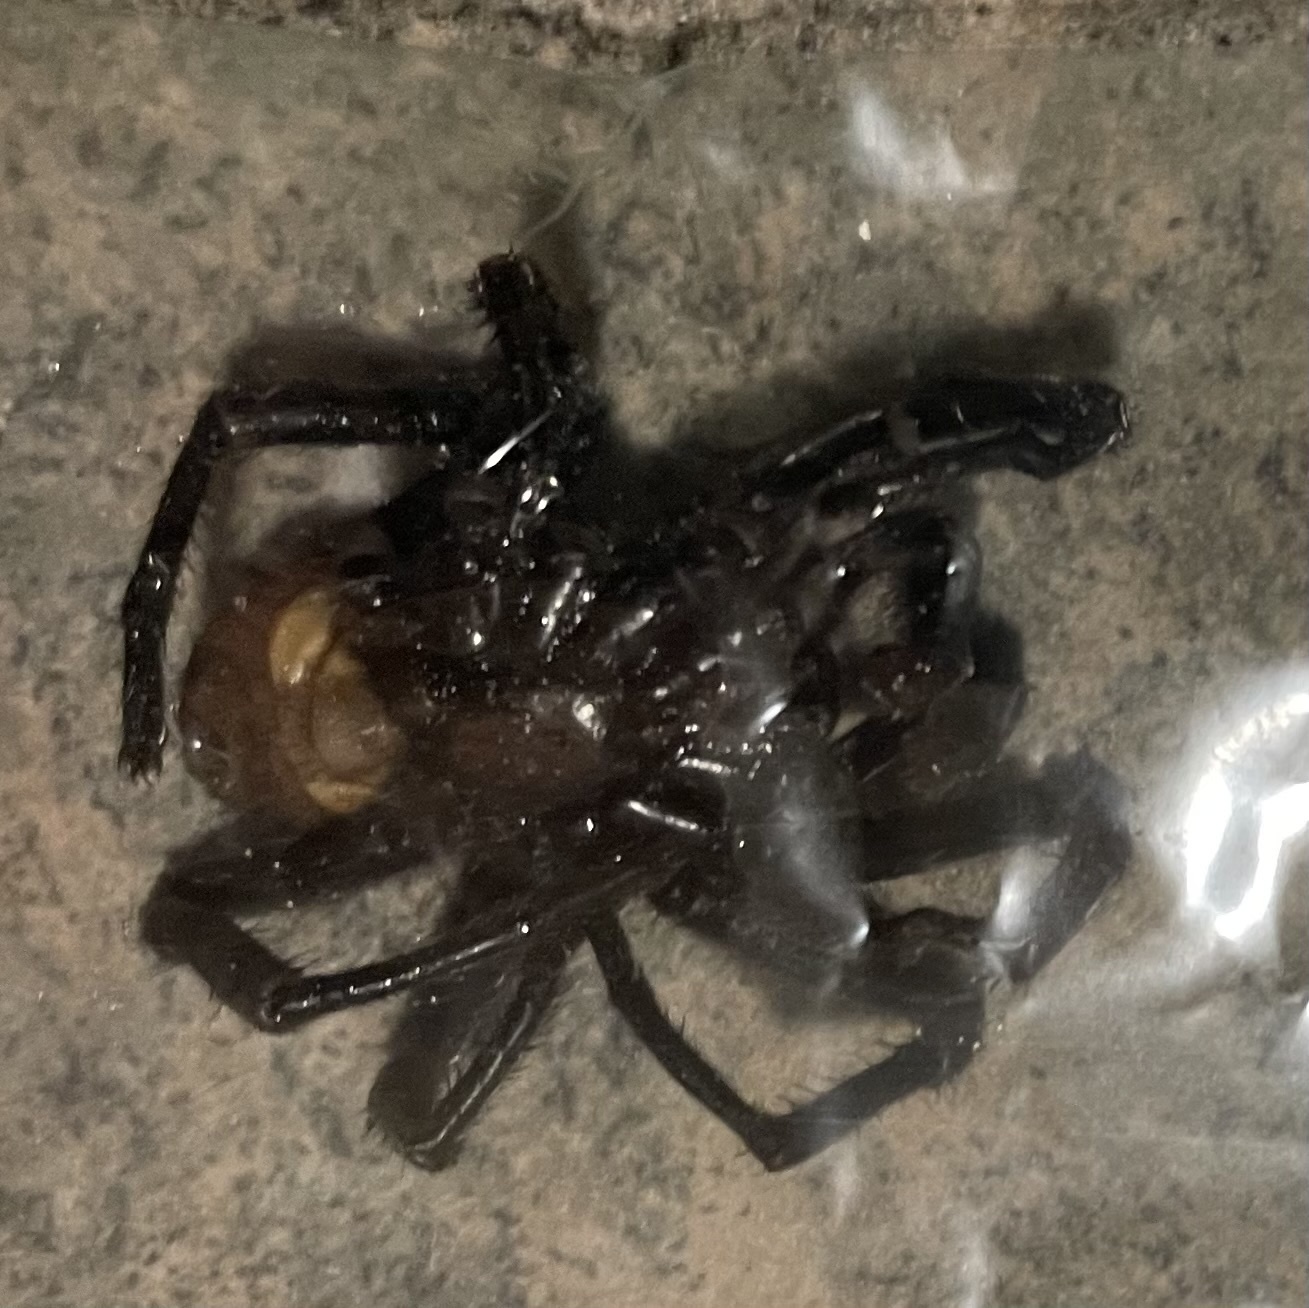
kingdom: Animalia
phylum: Arthropoda
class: Arachnida
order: Araneae
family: Halonoproctidae
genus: Bothriocyrtum
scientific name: Bothriocyrtum californicum
